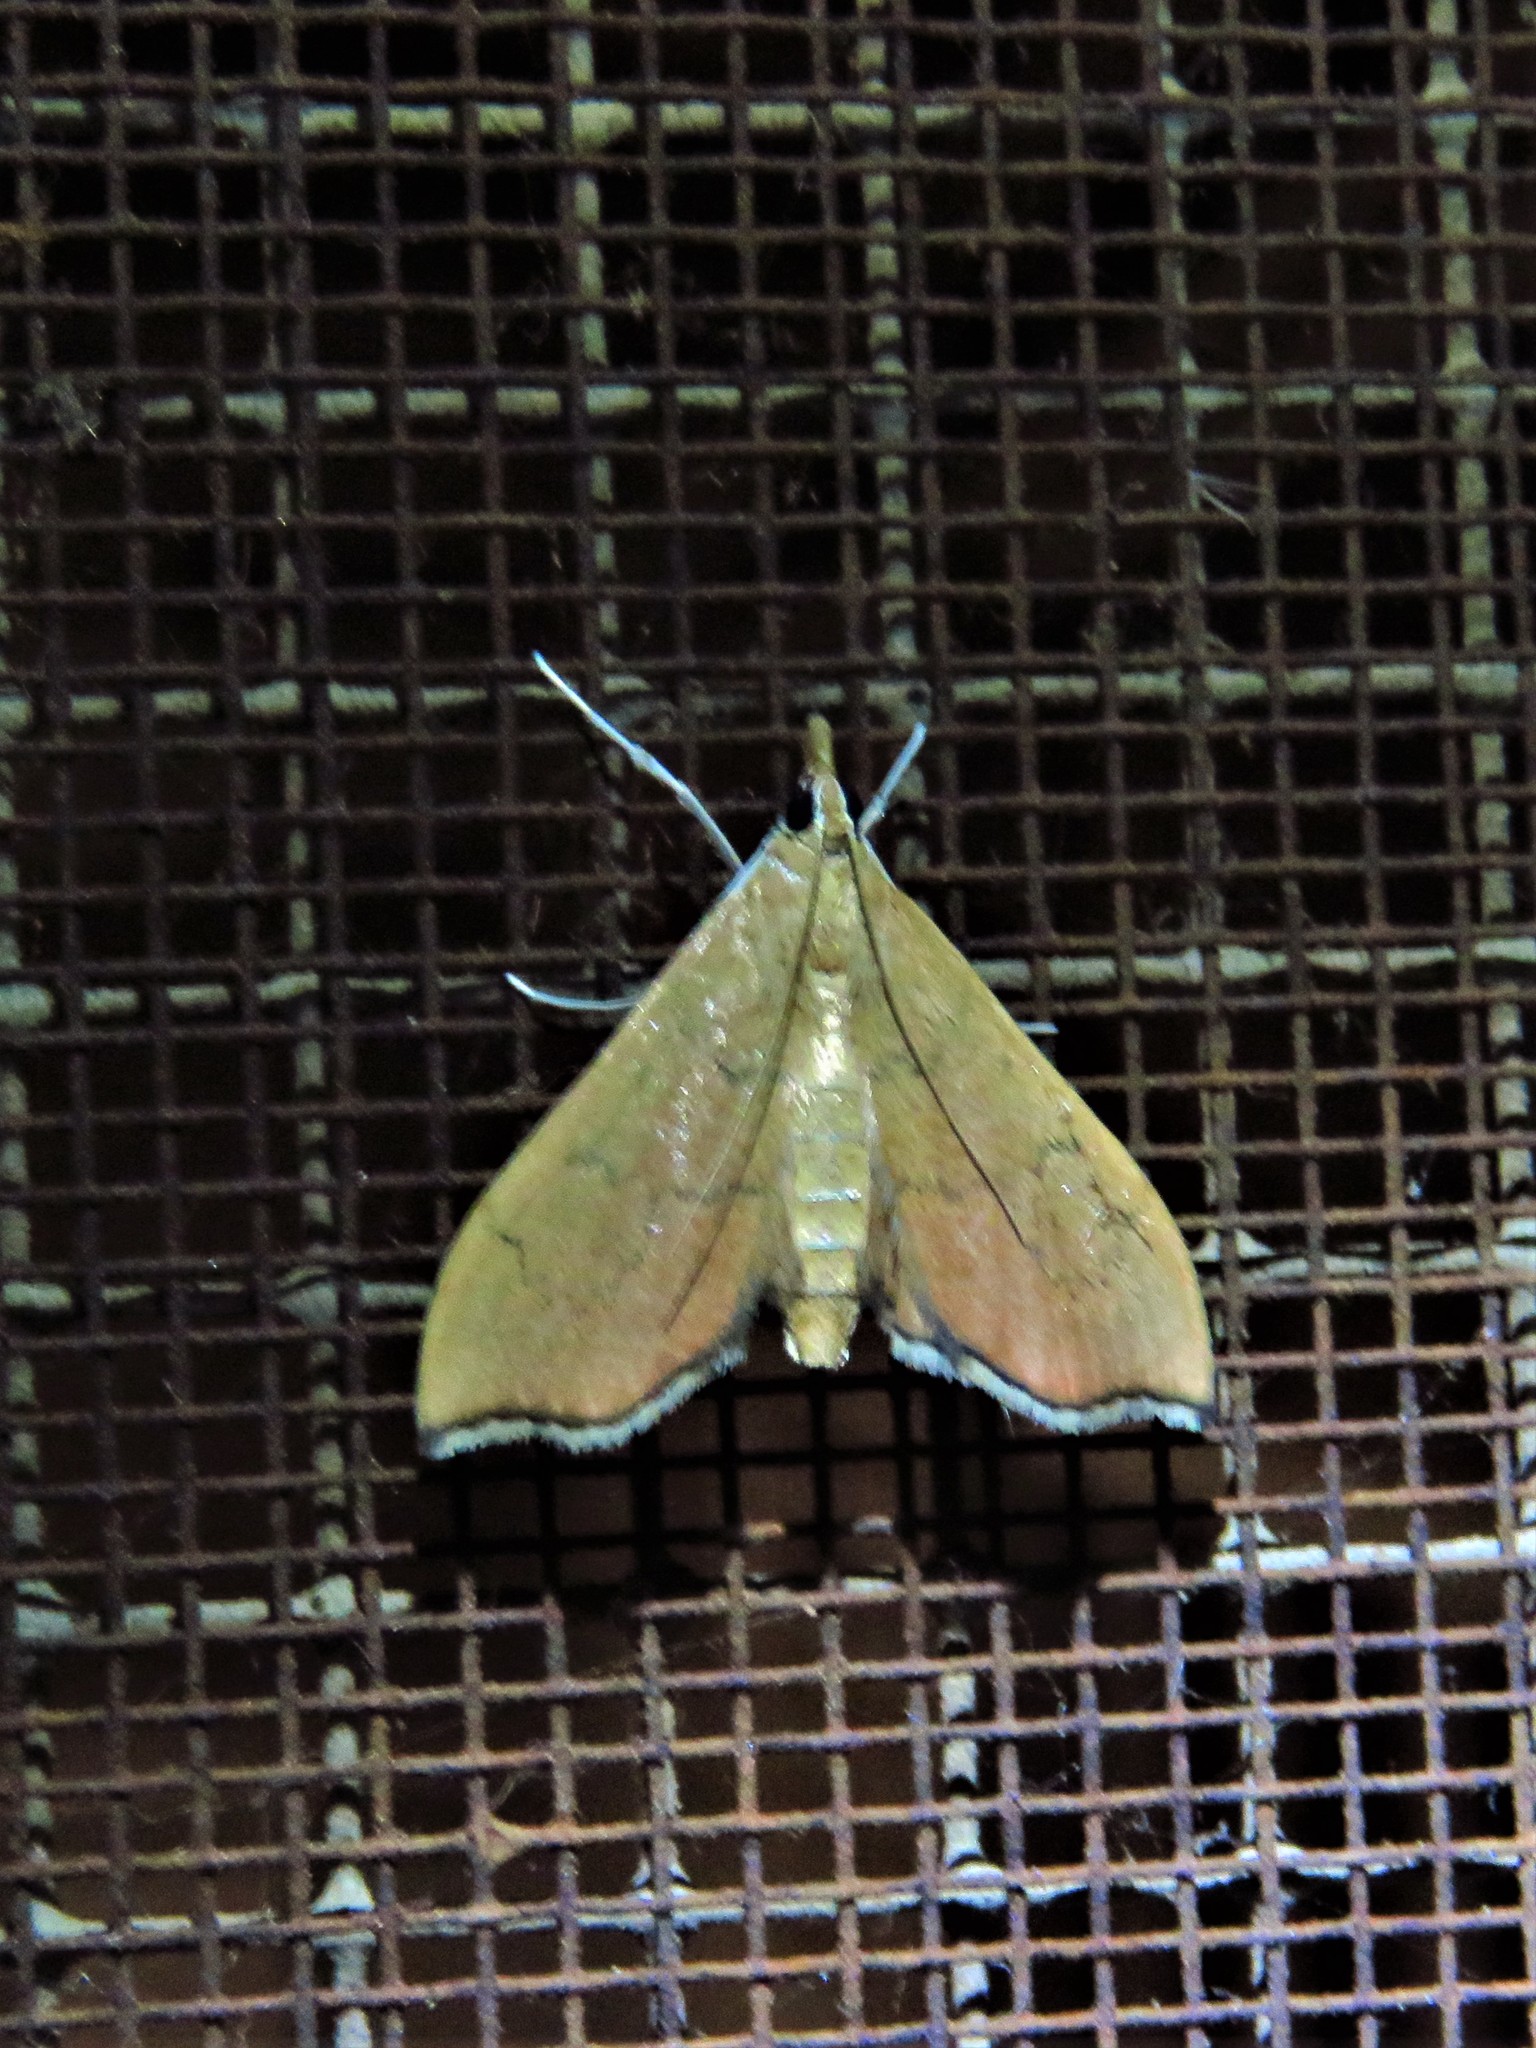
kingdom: Animalia
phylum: Arthropoda
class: Insecta
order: Lepidoptera
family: Crambidae
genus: Sericoplaga
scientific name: Sericoplaga externalis
